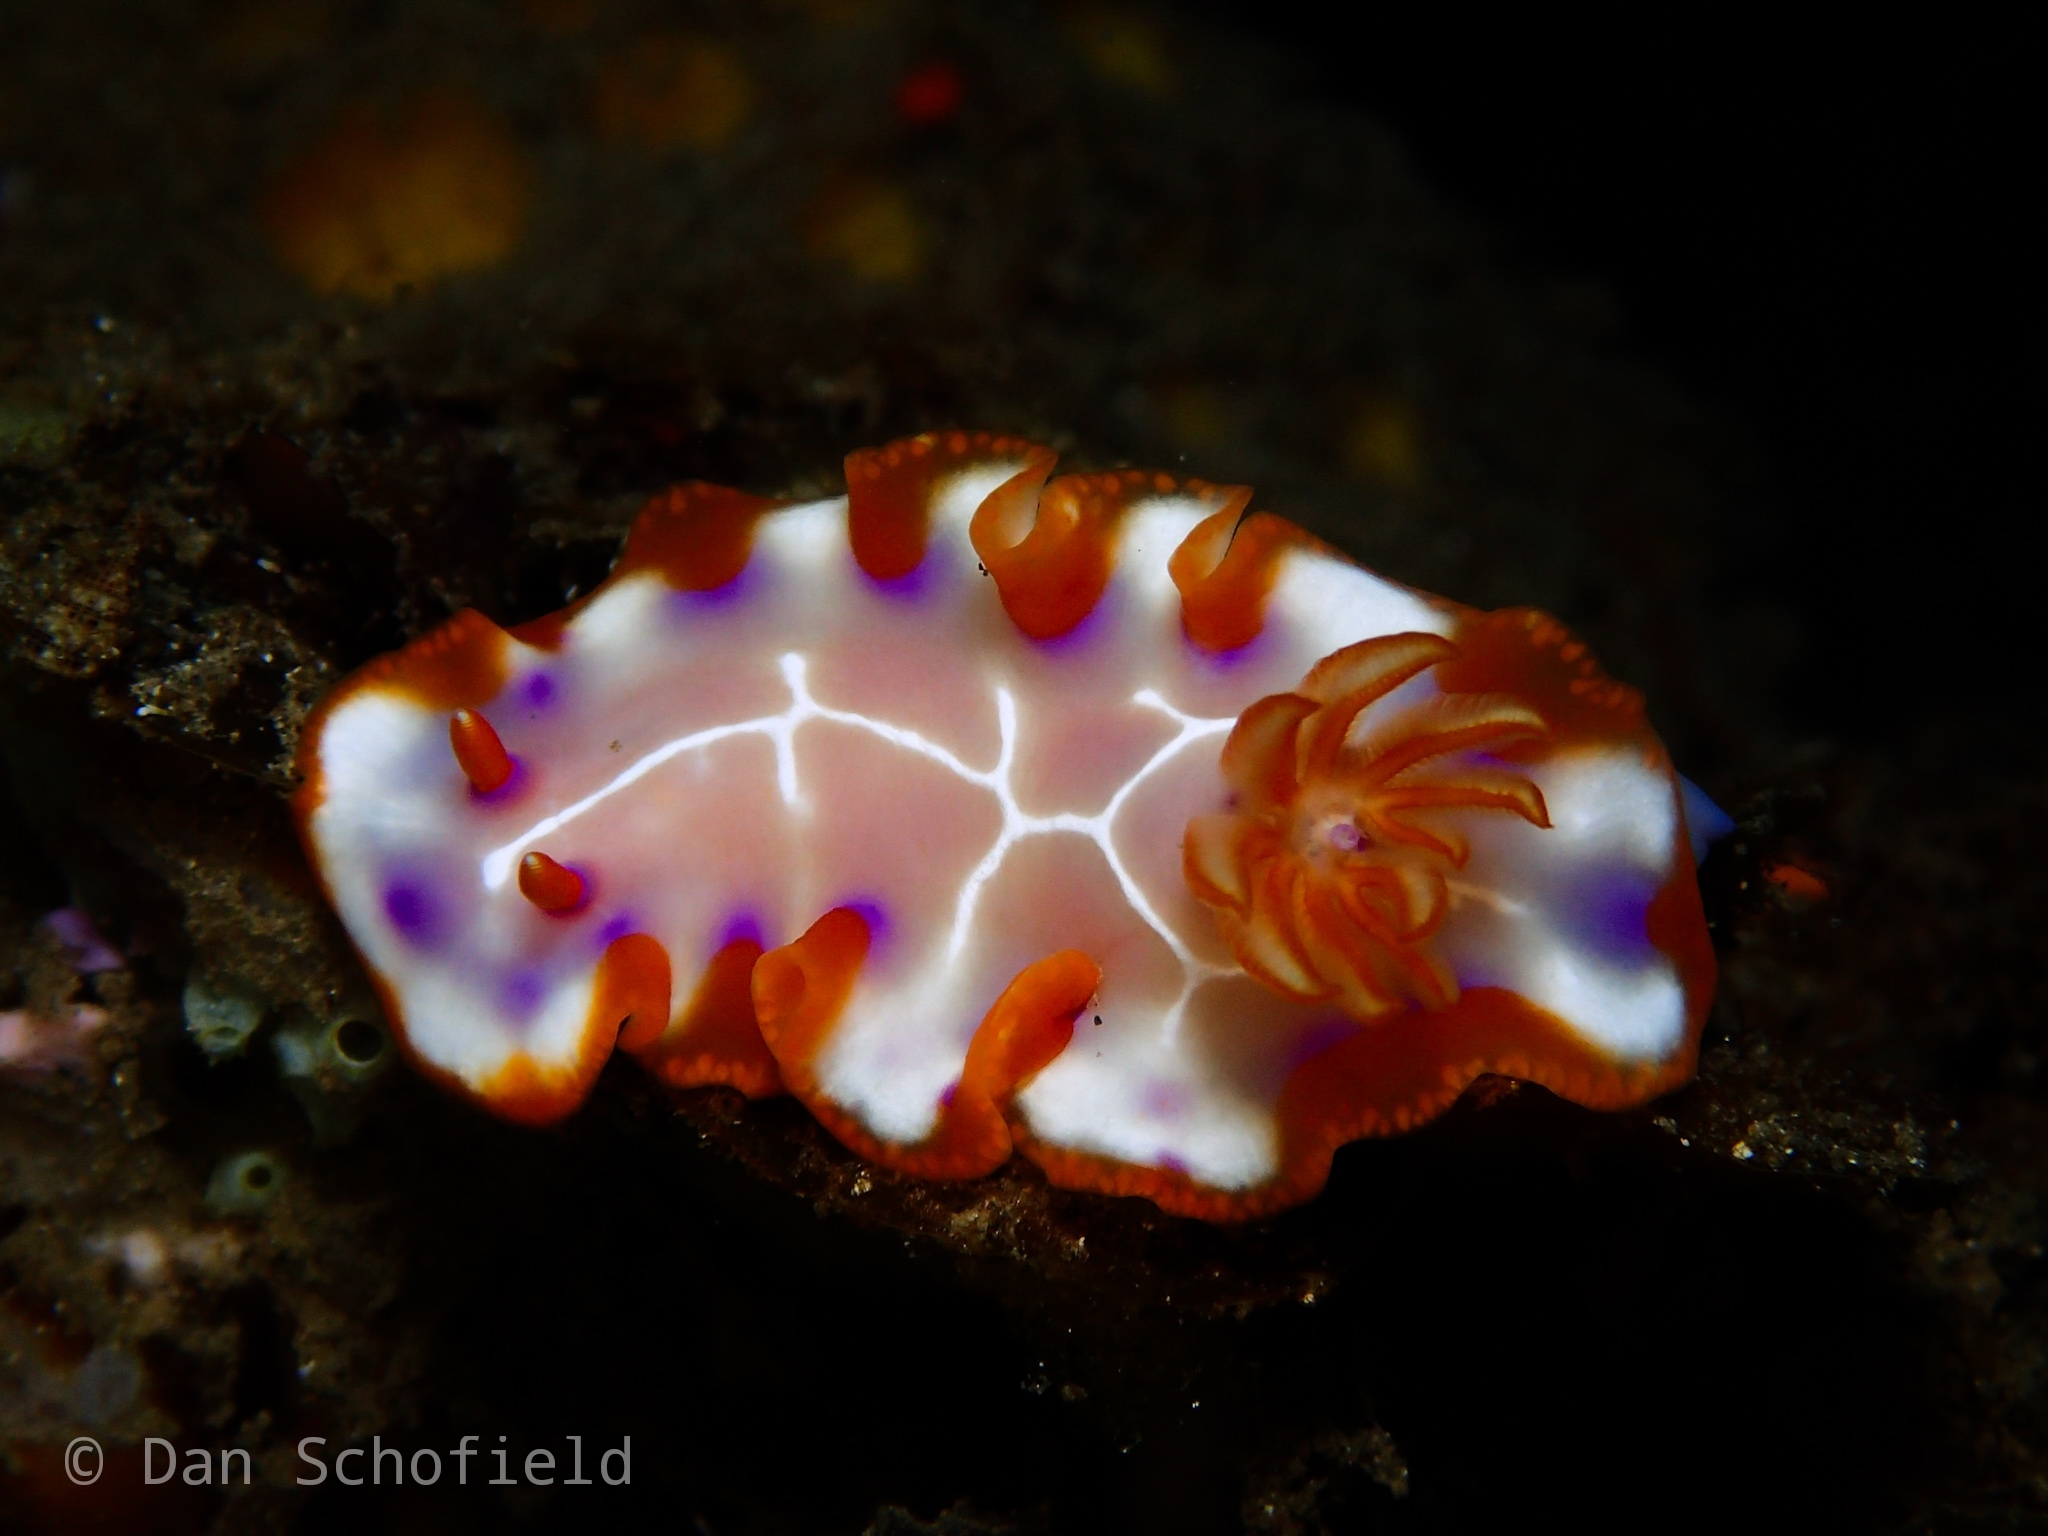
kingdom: Animalia
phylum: Mollusca
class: Gastropoda
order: Nudibranchia
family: Chromodorididae
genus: Hypselodoris
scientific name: Hypselodoris iacula
